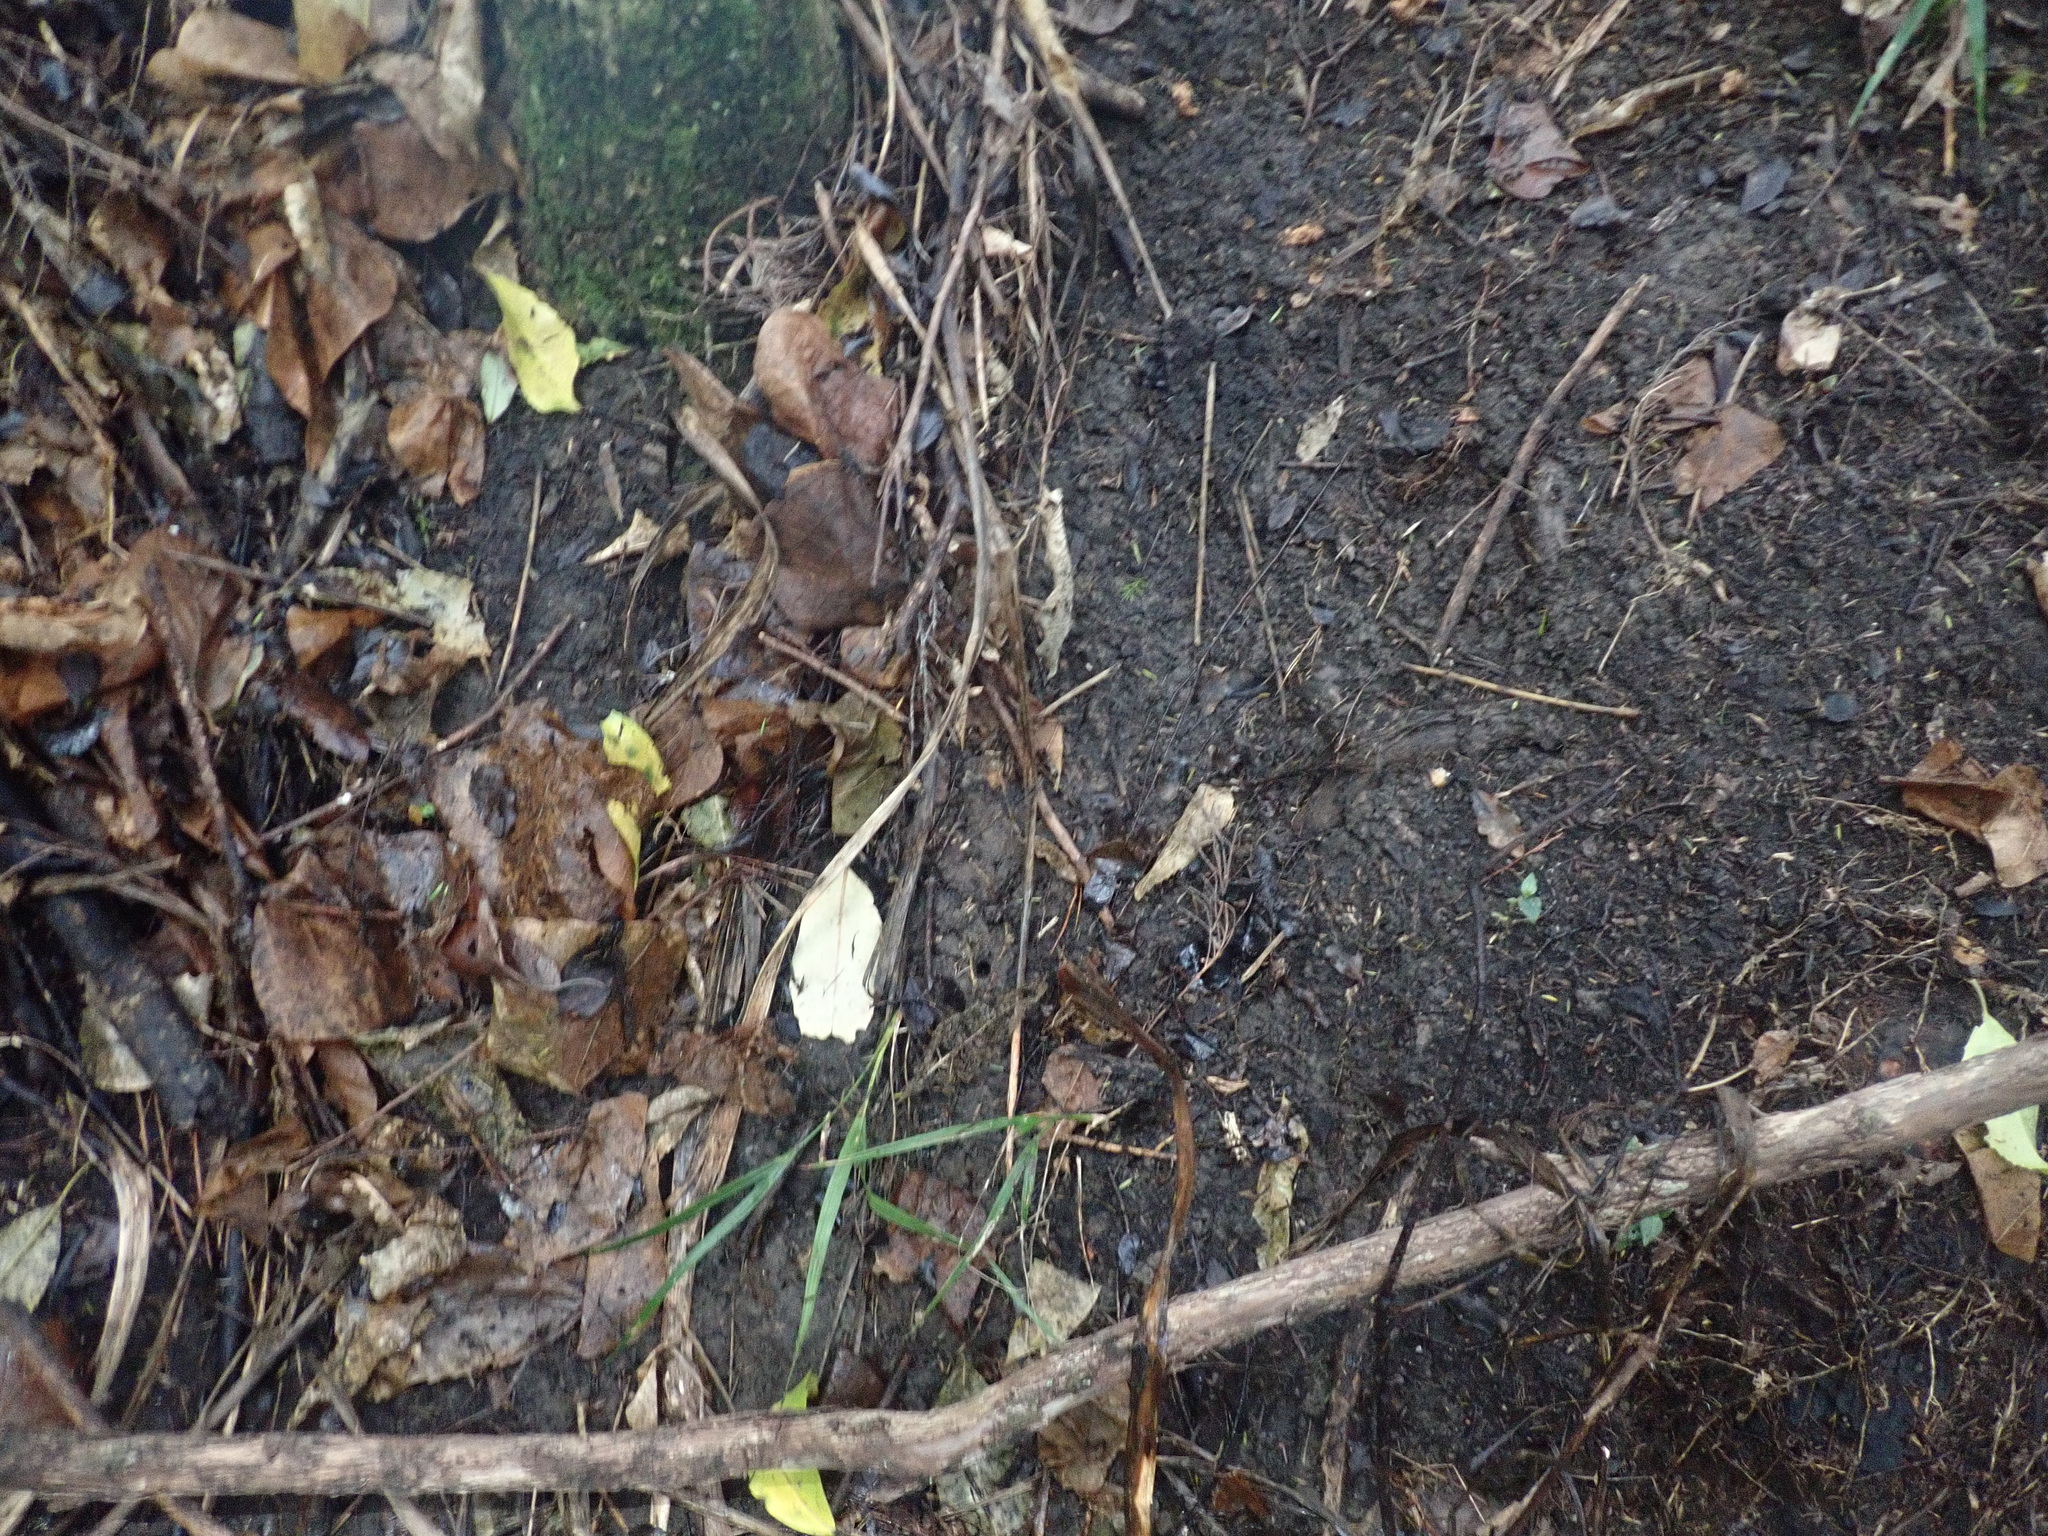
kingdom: Plantae
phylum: Tracheophyta
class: Liliopsida
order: Arecales
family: Arecaceae
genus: Rhopalostylis
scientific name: Rhopalostylis sapida
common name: Feather-duster palm
